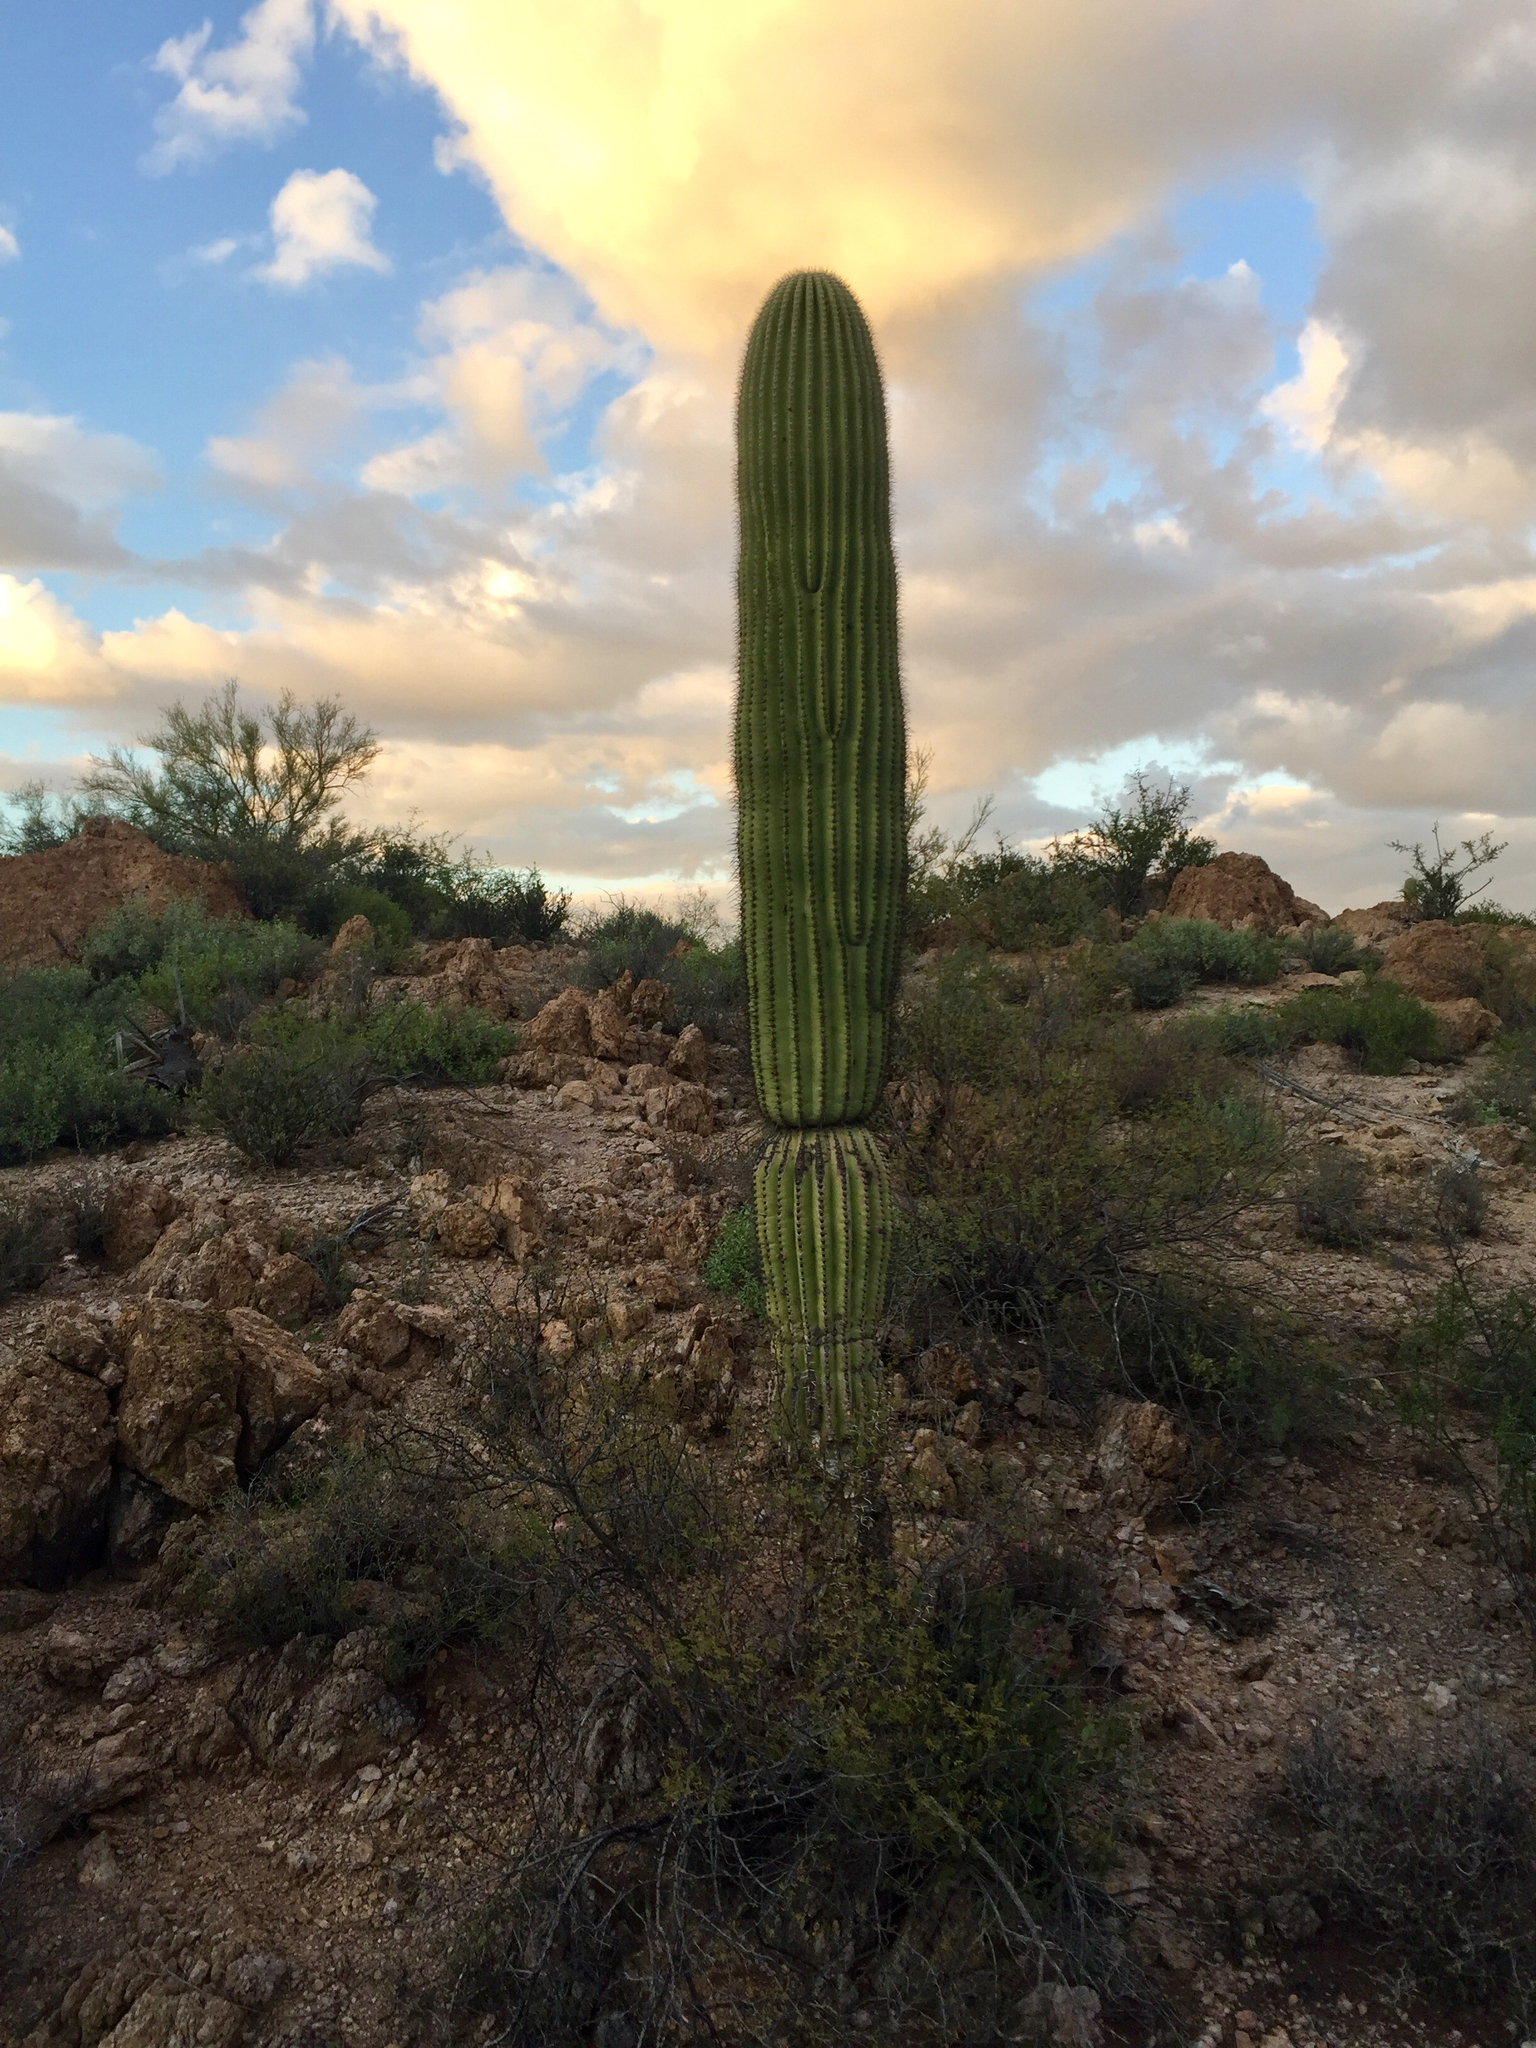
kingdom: Plantae
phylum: Tracheophyta
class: Magnoliopsida
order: Caryophyllales
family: Cactaceae
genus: Carnegiea
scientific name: Carnegiea gigantea
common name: Saguaro
